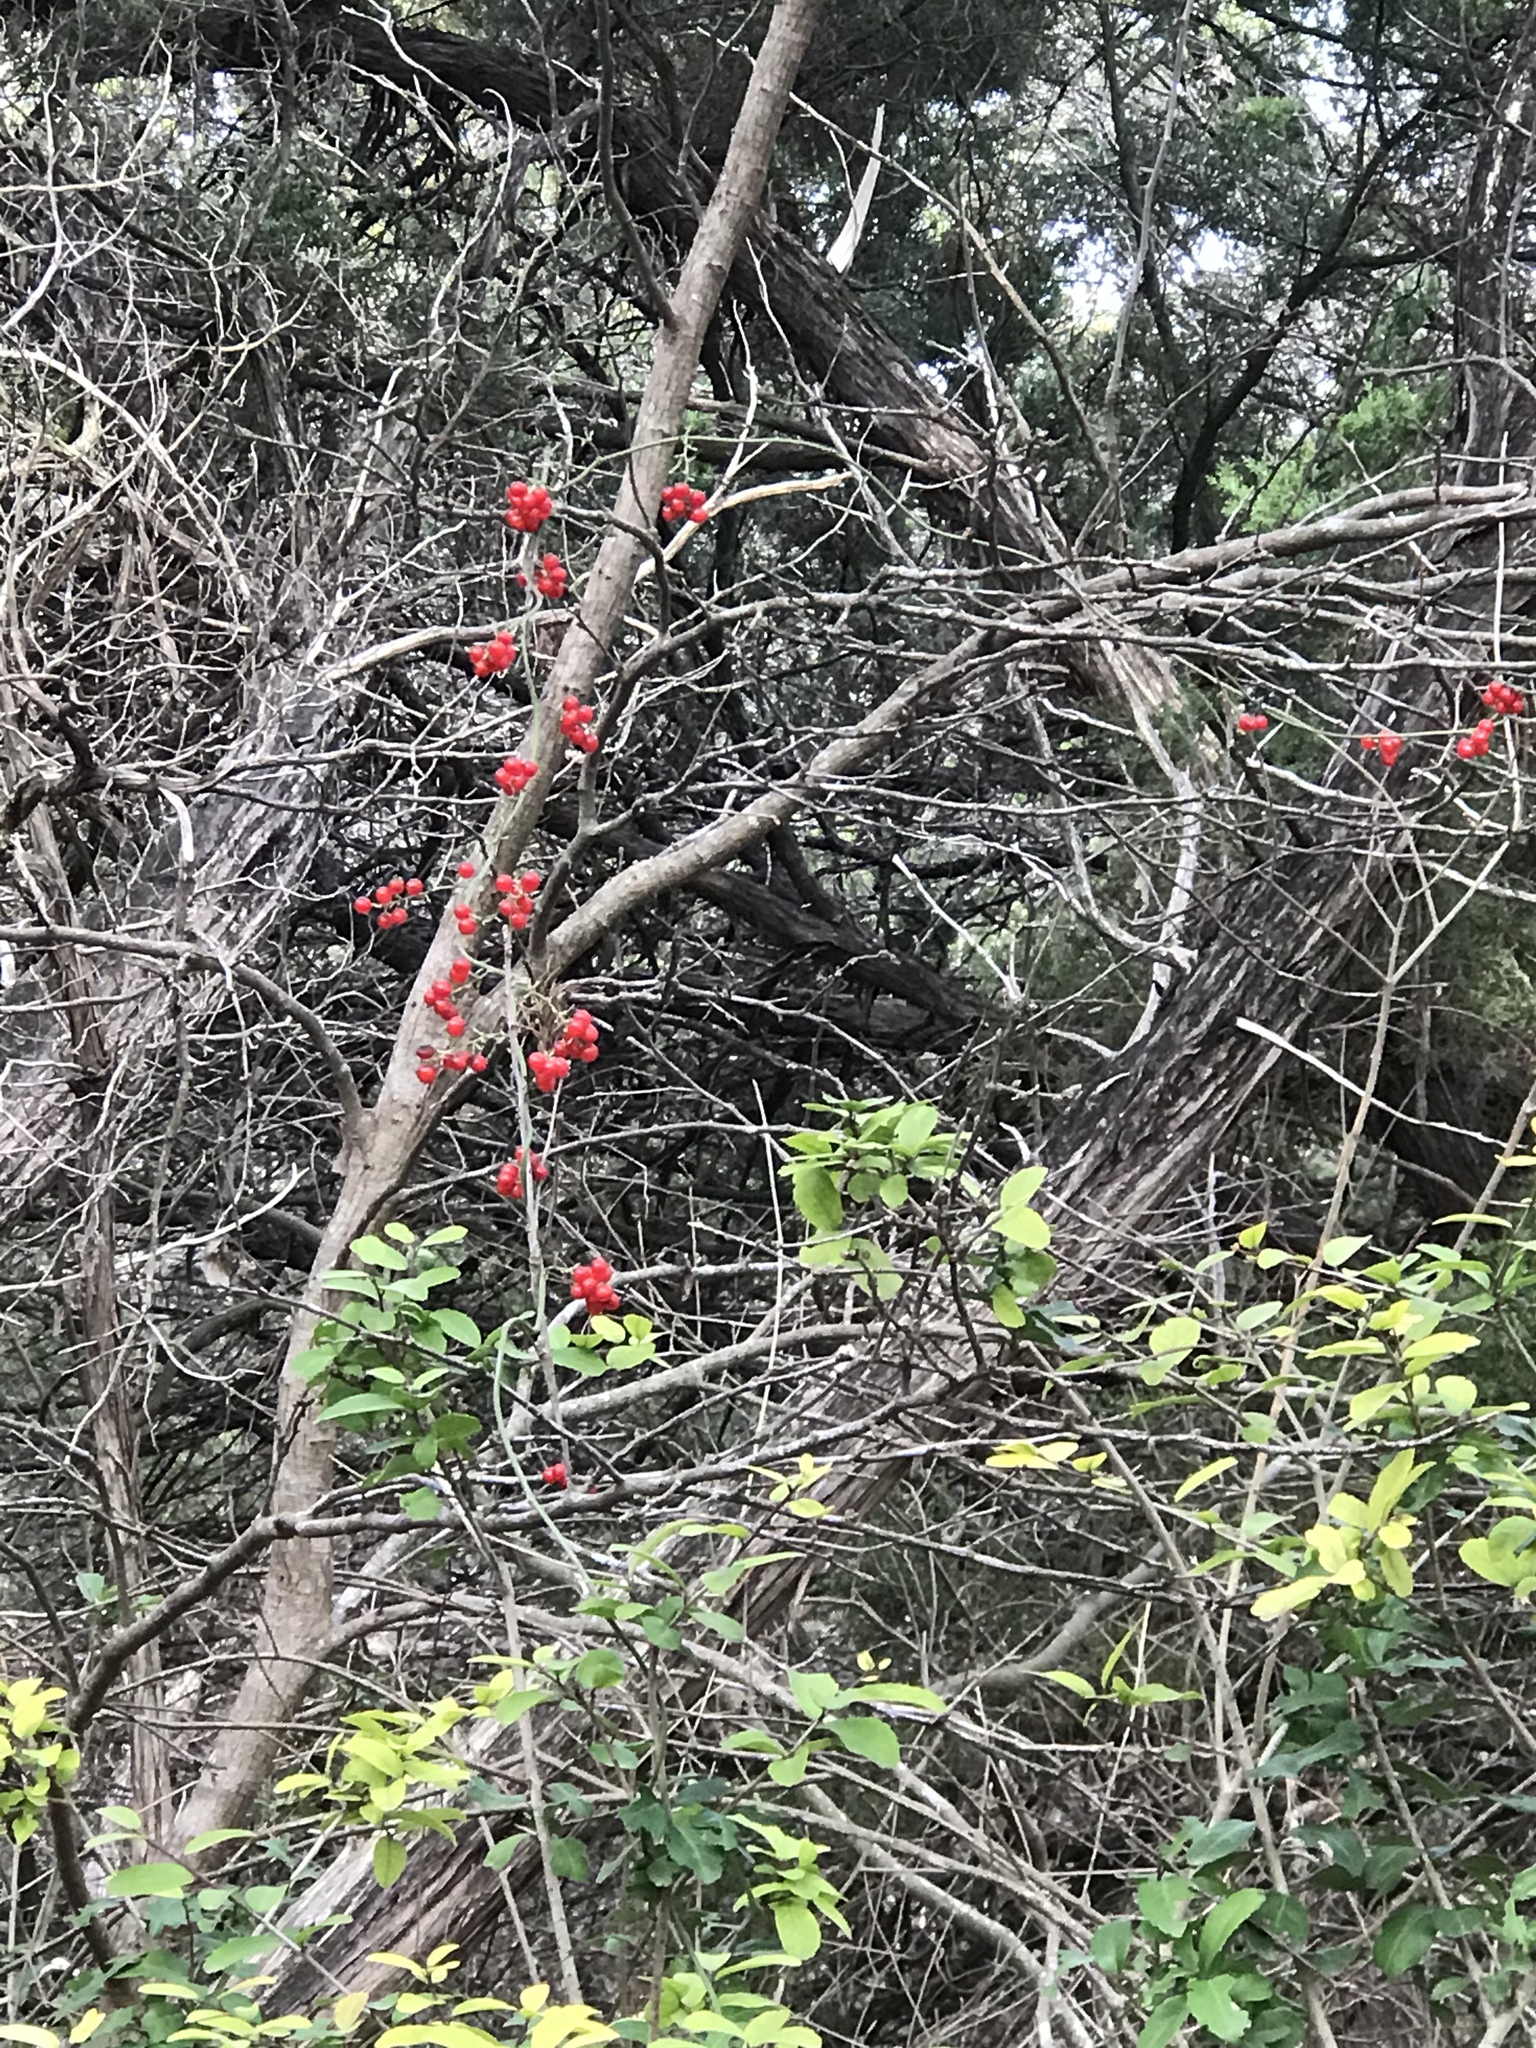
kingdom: Plantae
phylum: Tracheophyta
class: Magnoliopsida
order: Ranunculales
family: Menispermaceae
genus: Cocculus
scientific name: Cocculus carolinus
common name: Carolina moonseed
